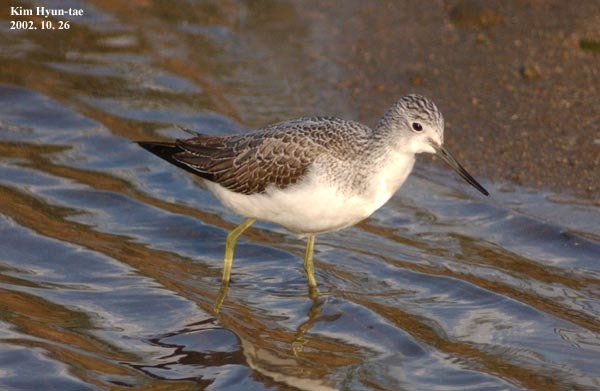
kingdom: Animalia
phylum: Chordata
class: Aves
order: Charadriiformes
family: Scolopacidae
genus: Tringa
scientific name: Tringa nebularia
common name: Common greenshank
